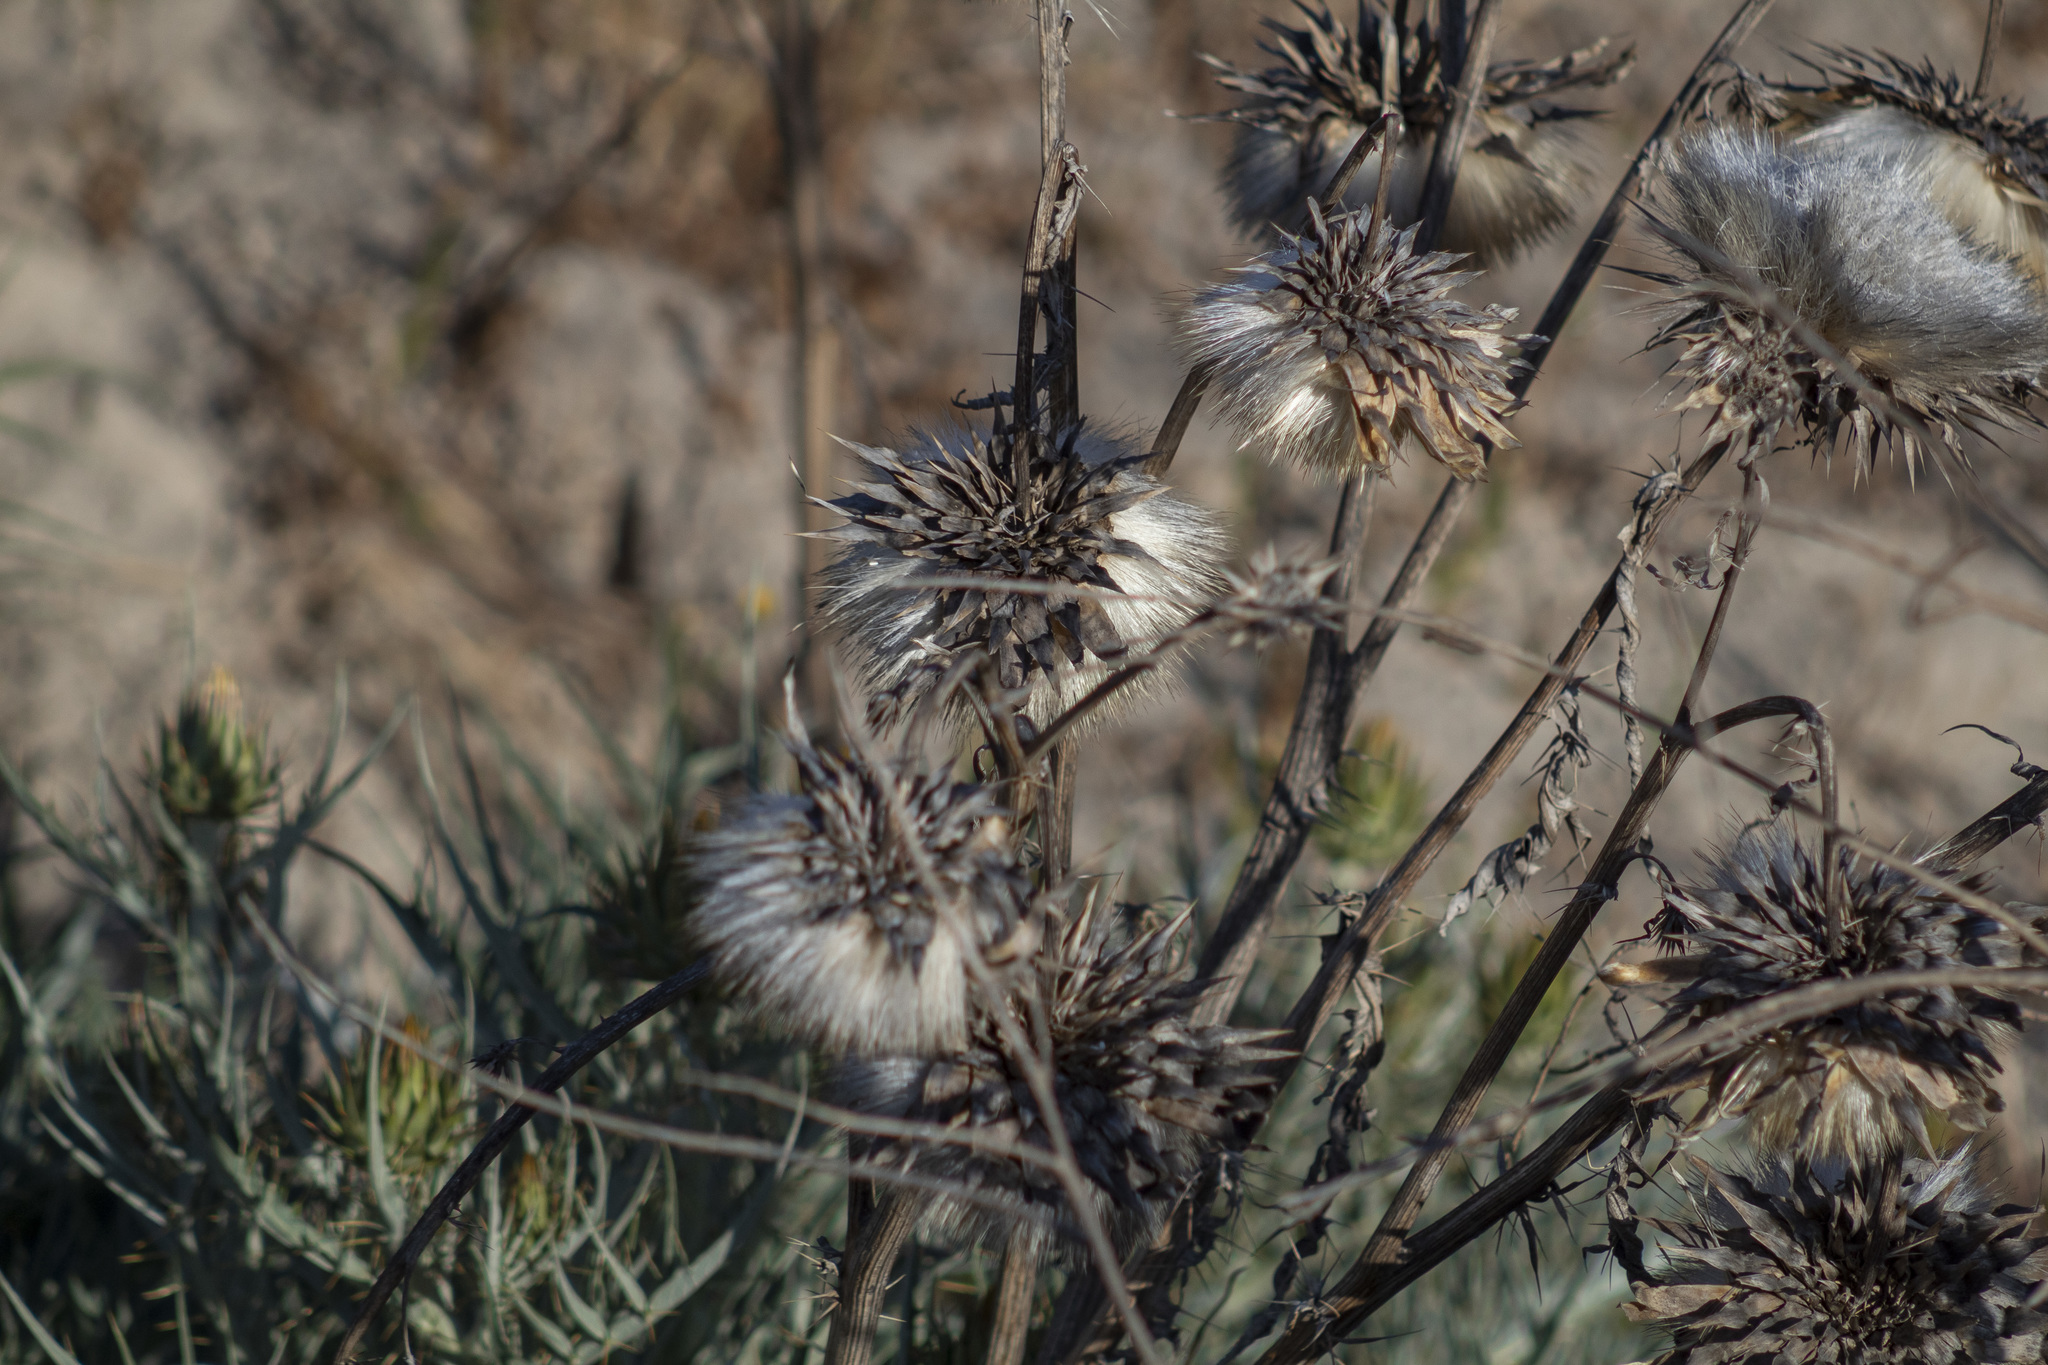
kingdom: Plantae
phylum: Tracheophyta
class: Magnoliopsida
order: Asterales
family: Asteraceae
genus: Cynara
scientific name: Cynara cardunculus
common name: Globe artichoke
